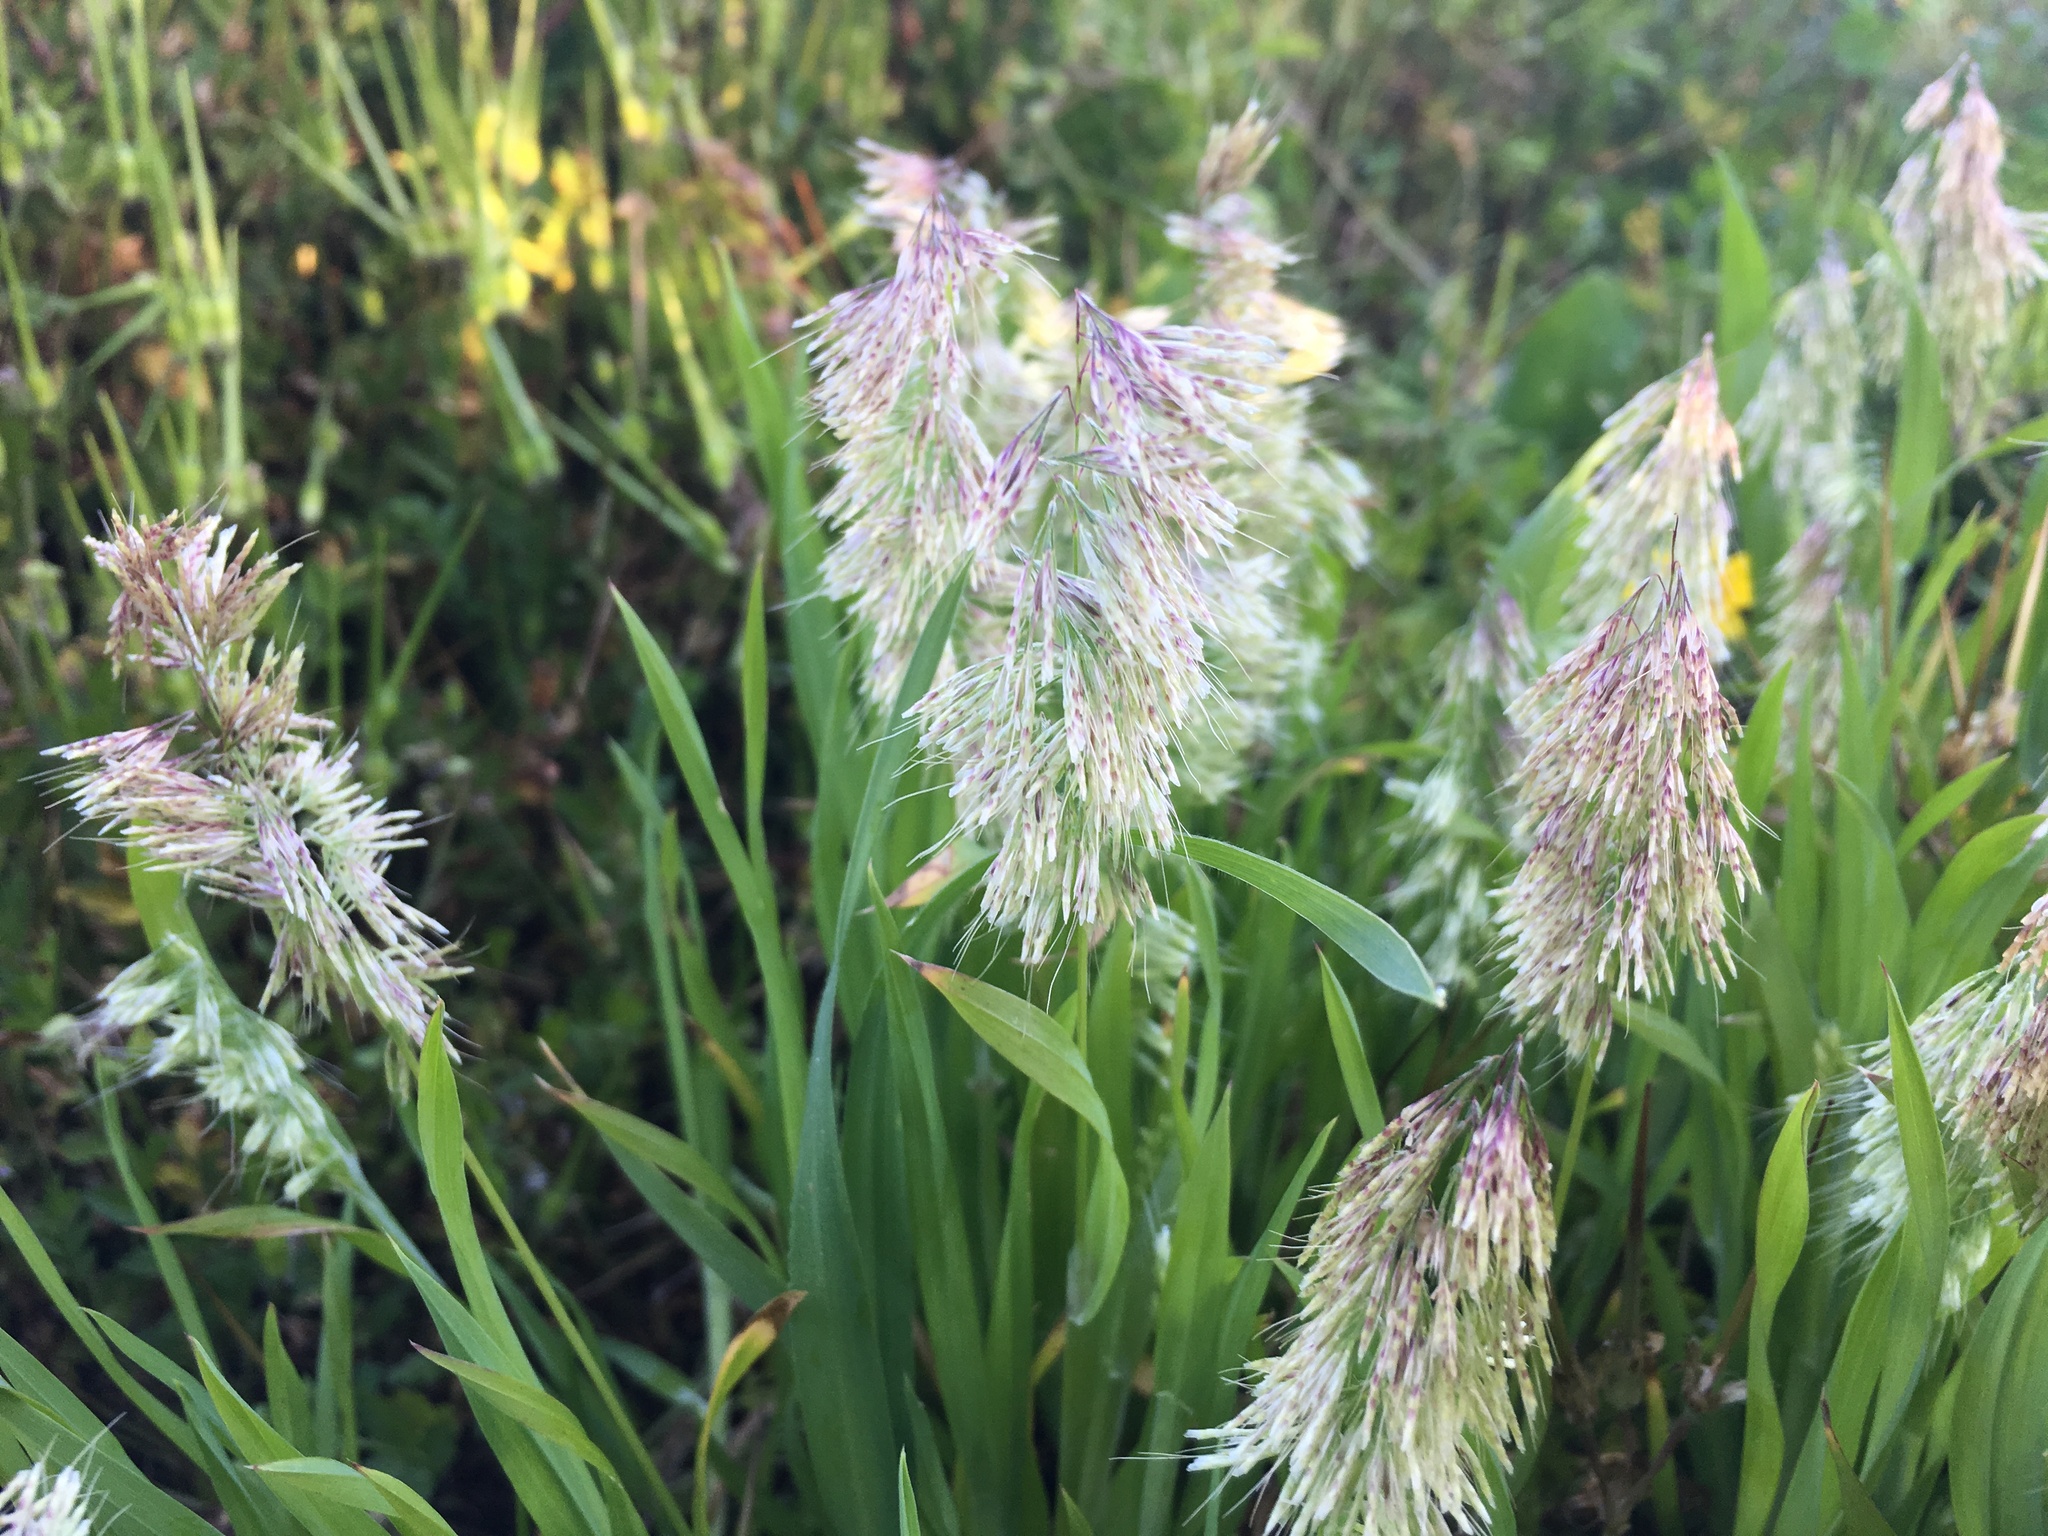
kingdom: Plantae
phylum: Tracheophyta
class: Liliopsida
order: Poales
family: Poaceae
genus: Lamarckia
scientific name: Lamarckia aurea
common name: Golden dog's-tail
